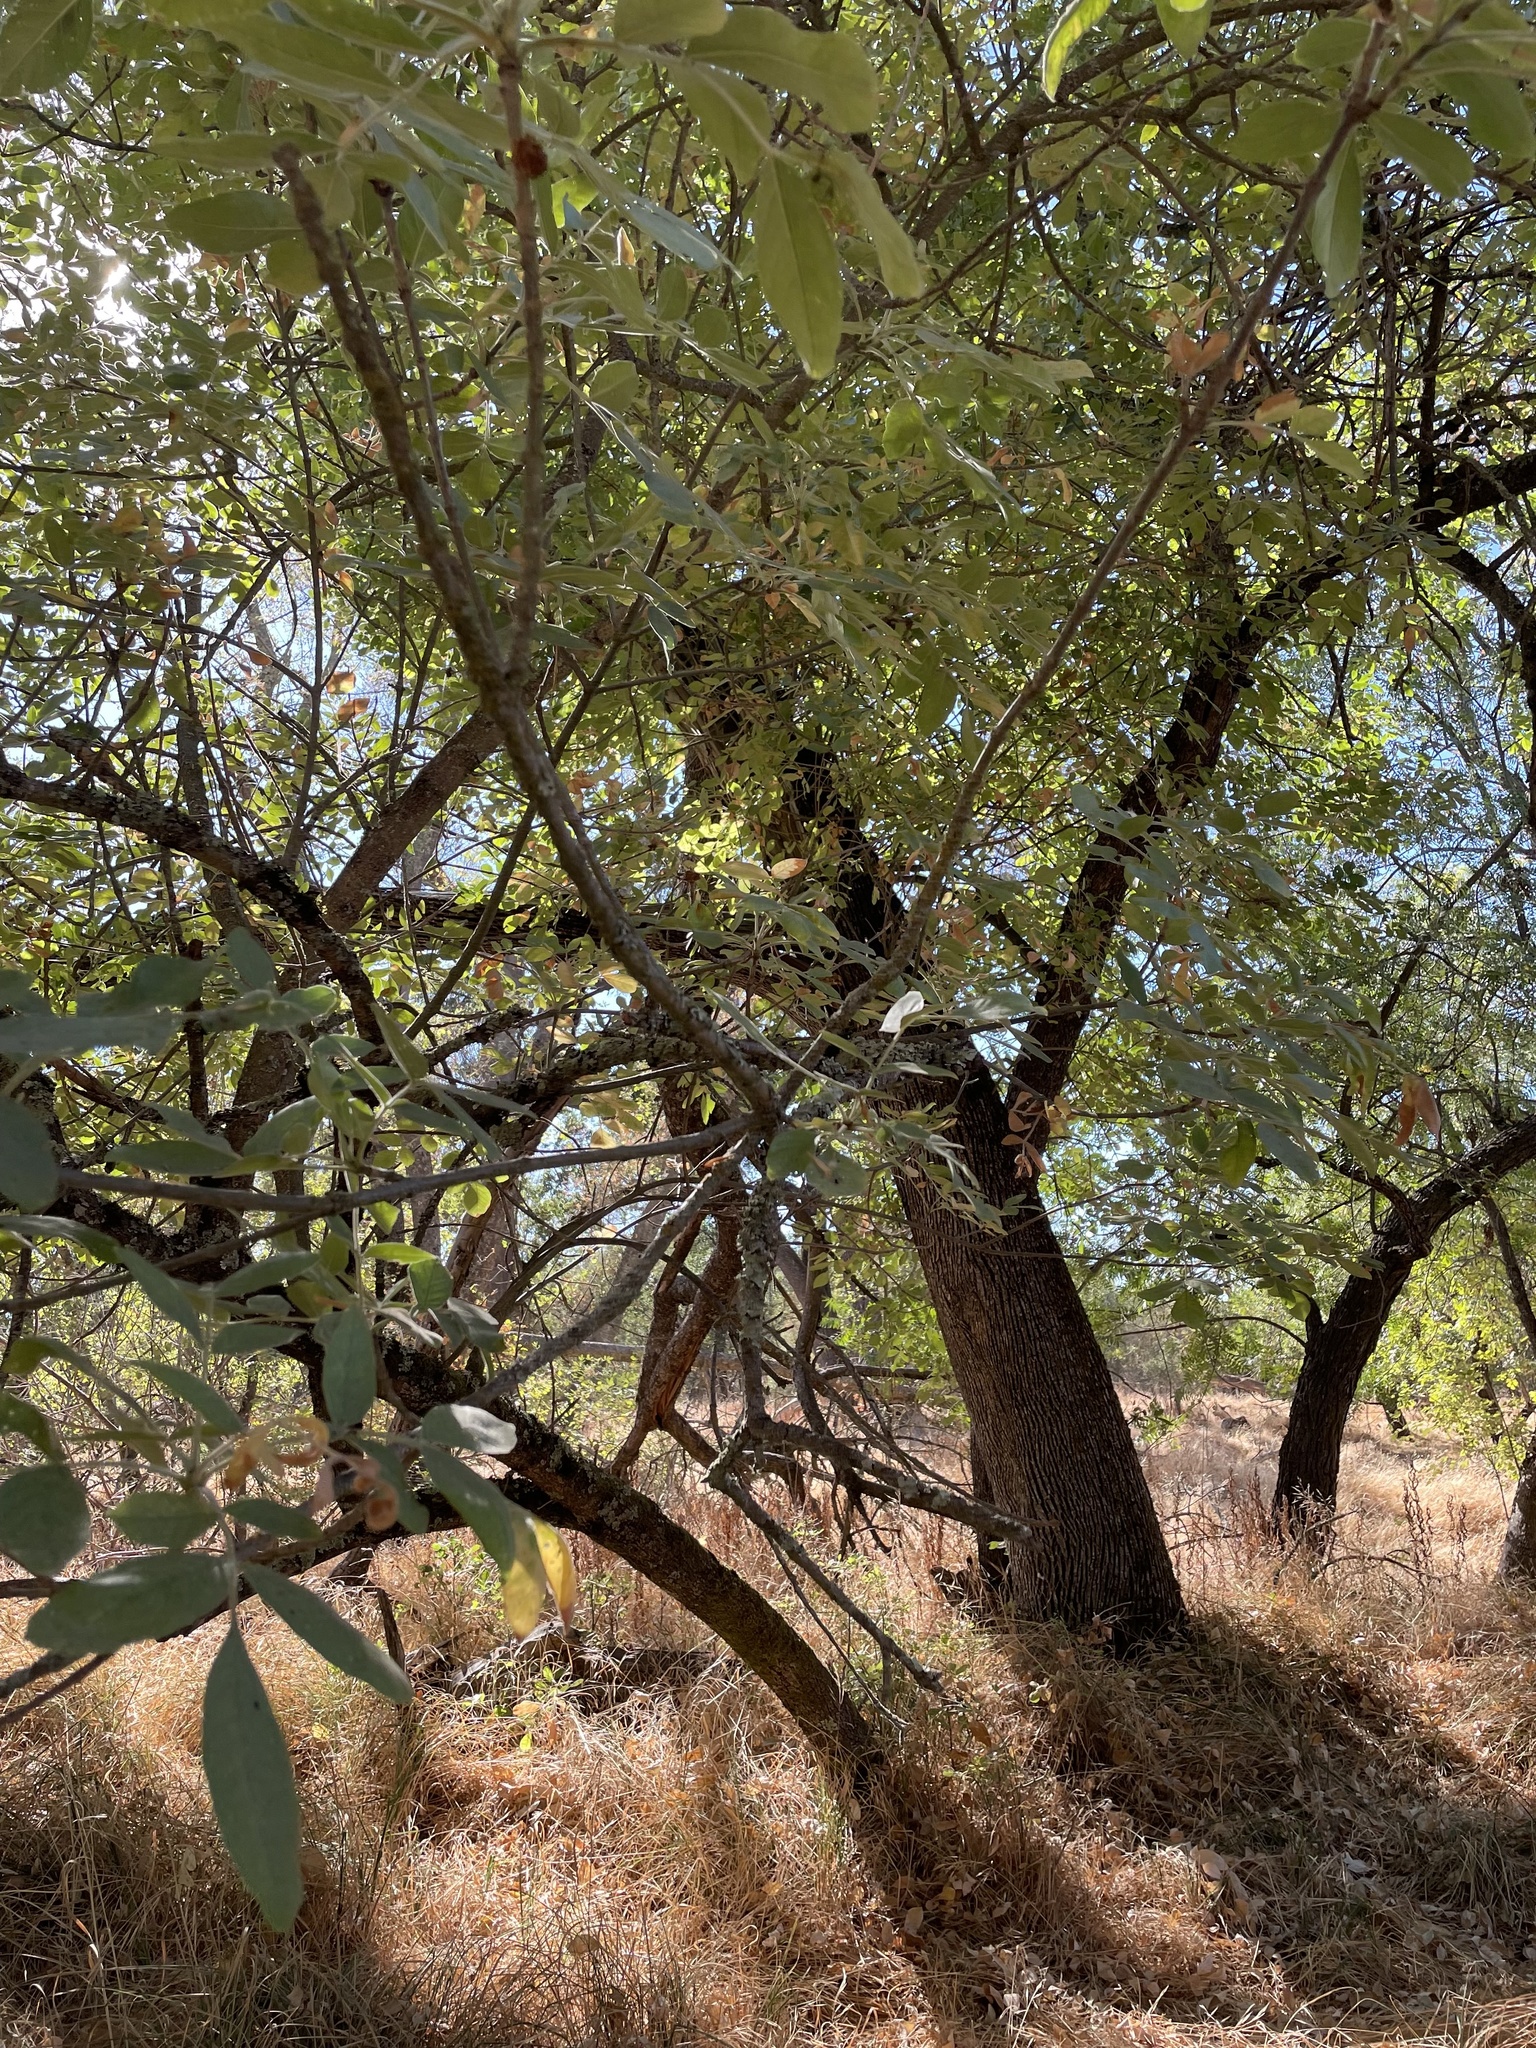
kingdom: Plantae
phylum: Tracheophyta
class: Magnoliopsida
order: Lamiales
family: Oleaceae
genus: Fraxinus
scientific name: Fraxinus latifolia
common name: Oregon ash
